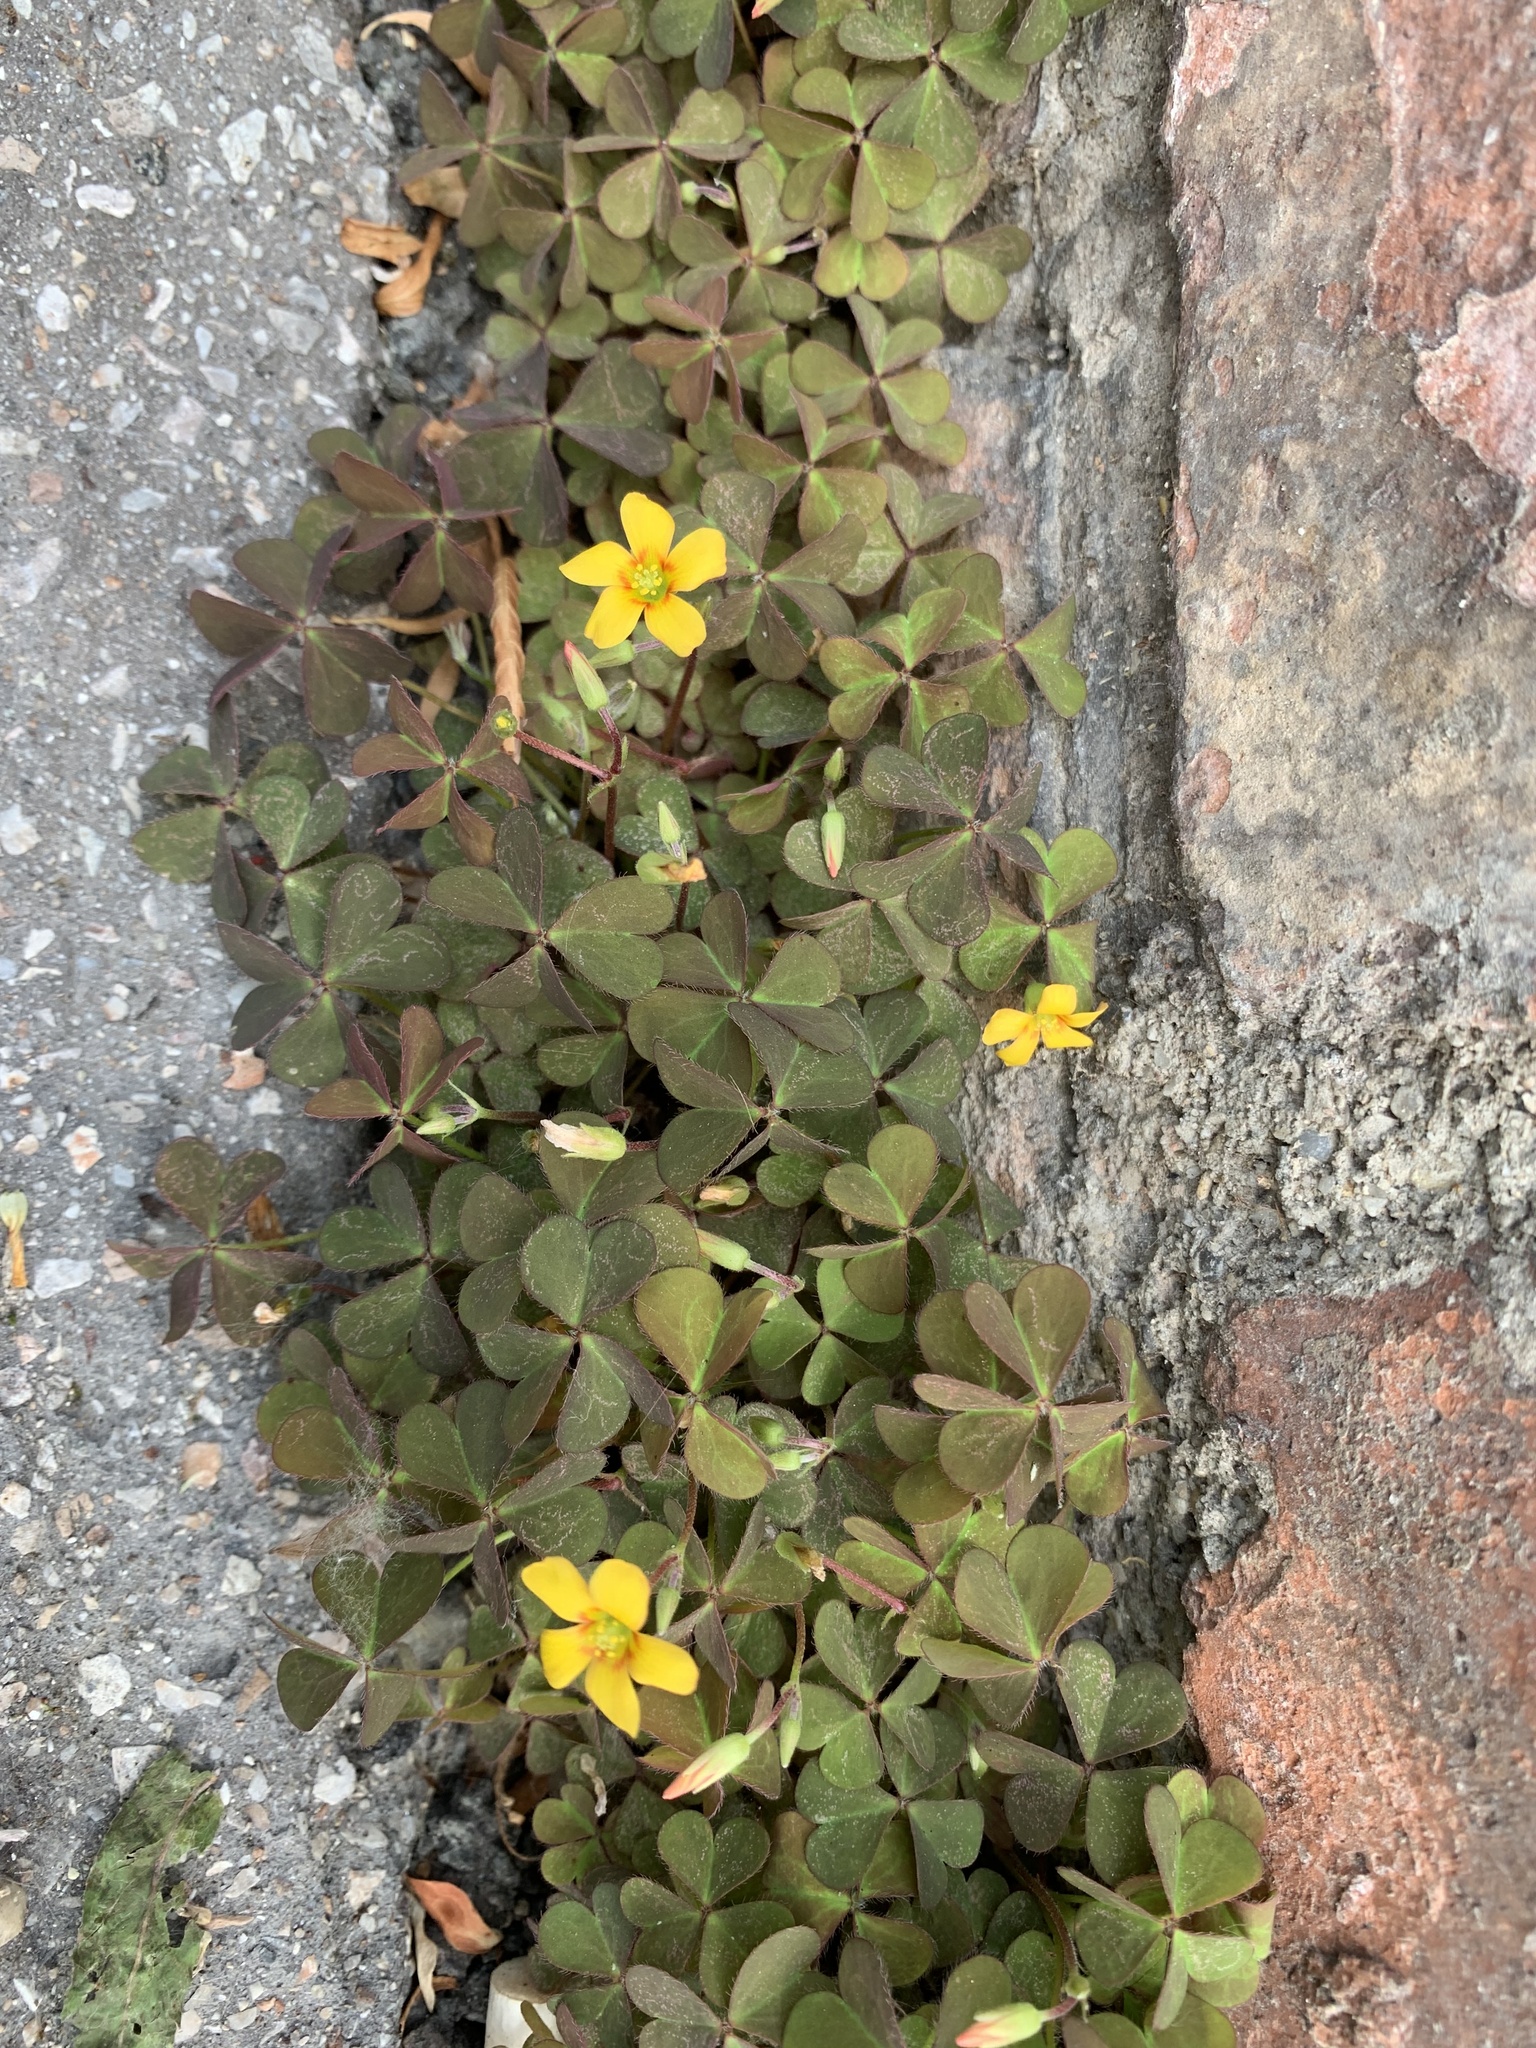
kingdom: Plantae
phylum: Tracheophyta
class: Magnoliopsida
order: Oxalidales
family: Oxalidaceae
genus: Oxalis
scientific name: Oxalis corniculata
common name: Procumbent yellow-sorrel
